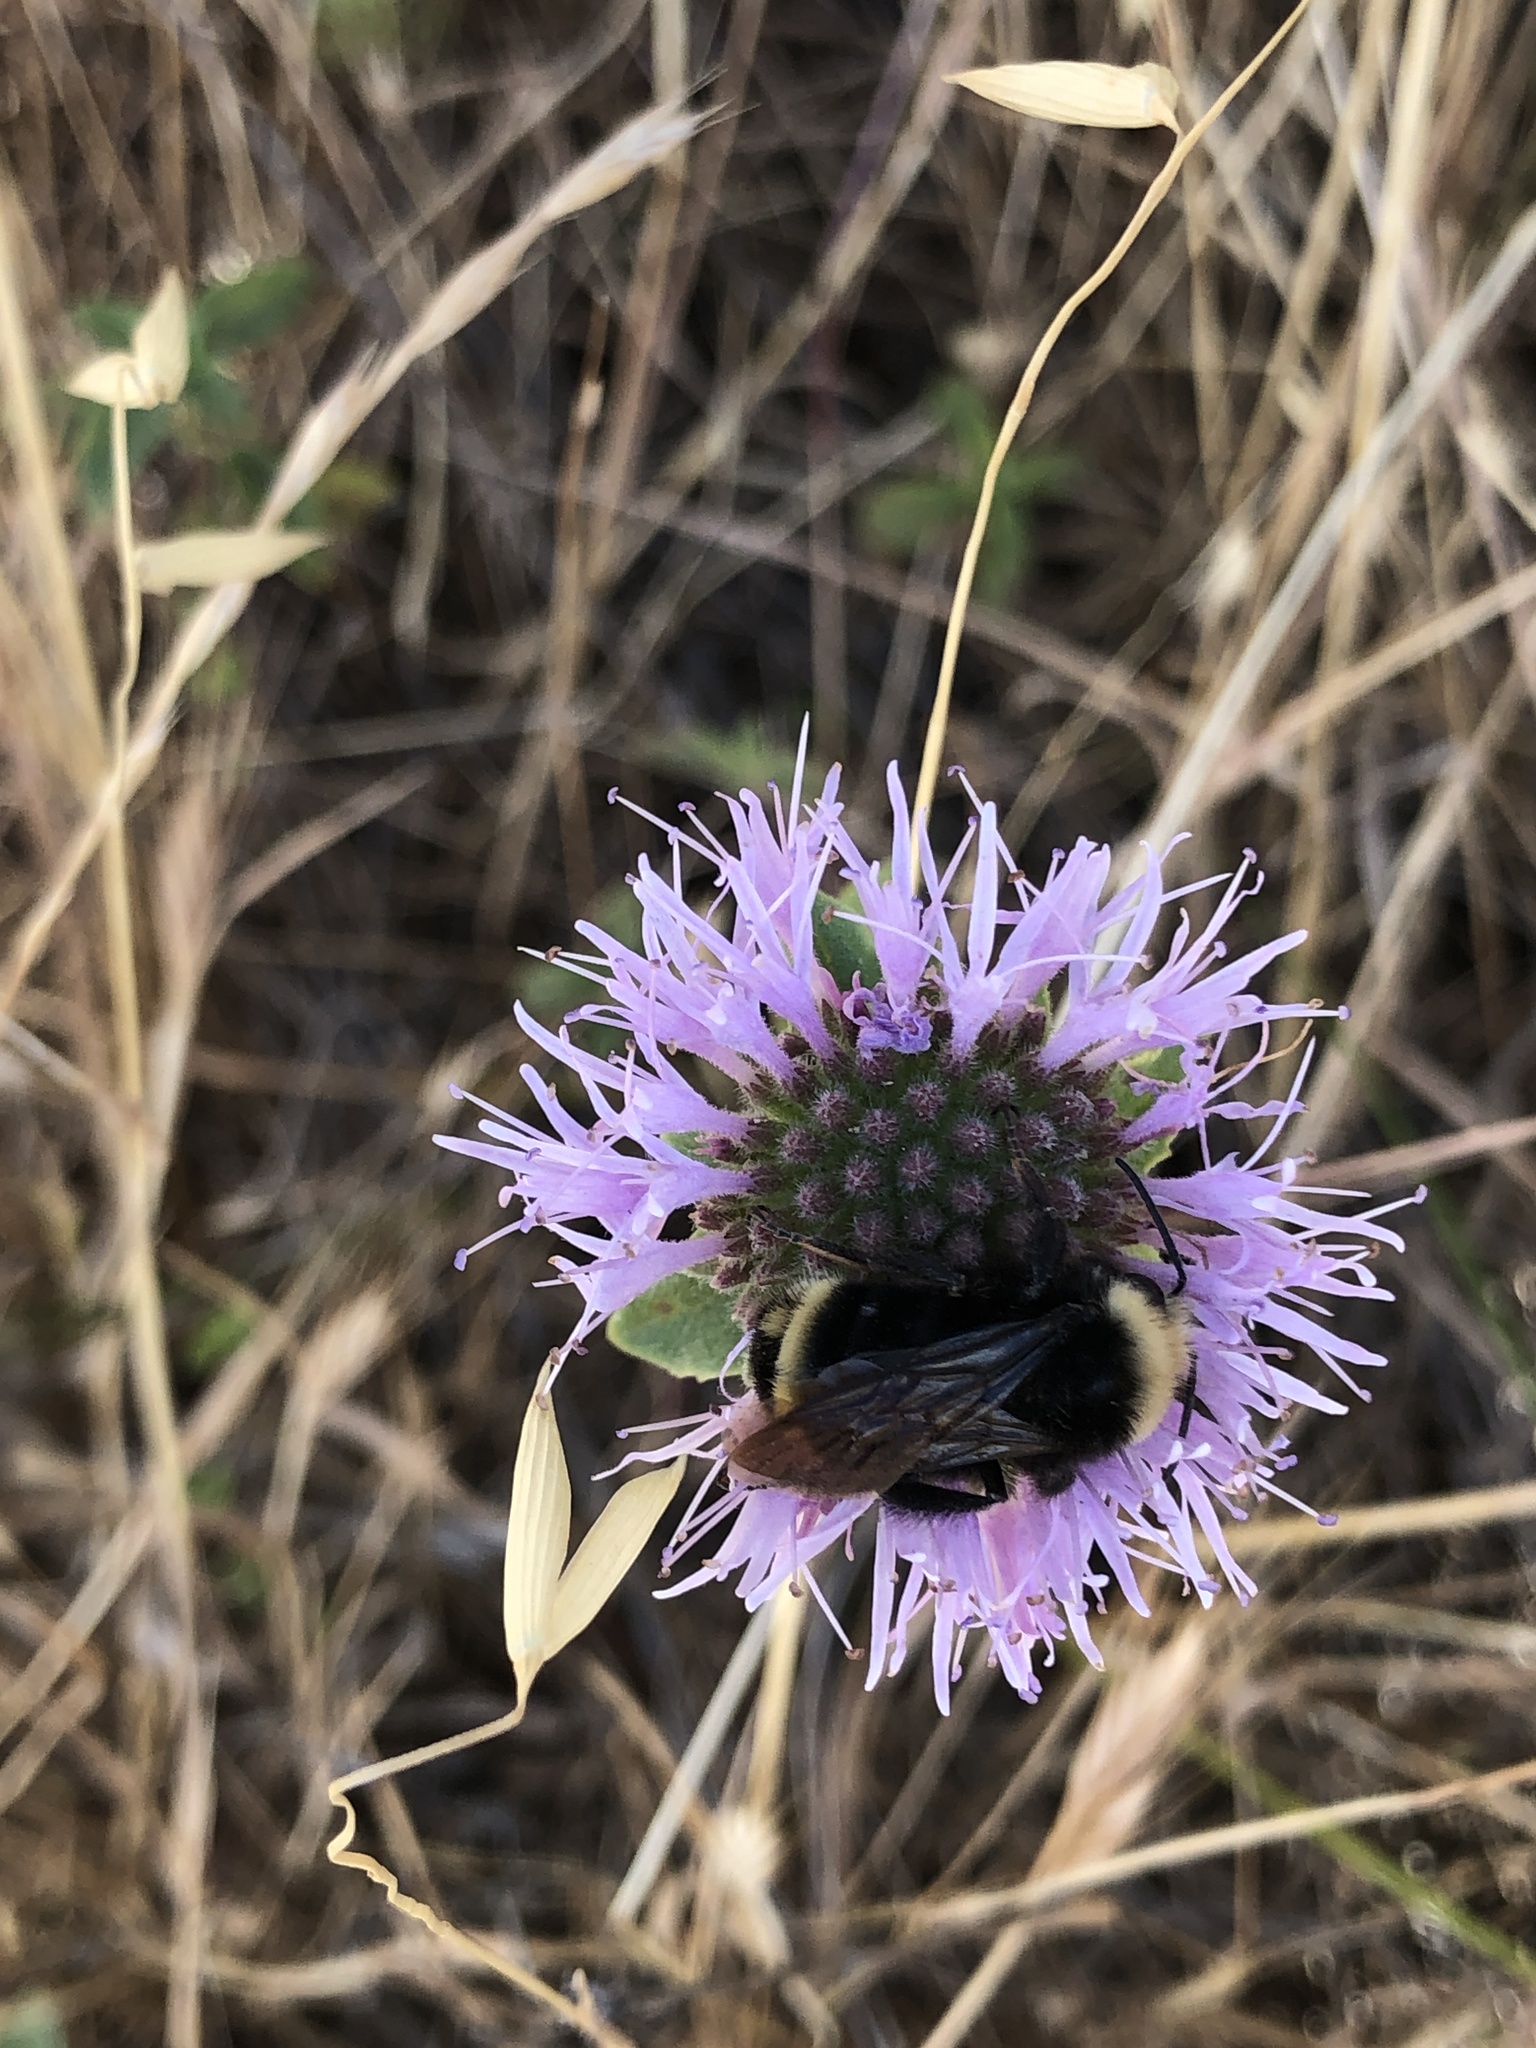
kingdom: Plantae
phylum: Tracheophyta
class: Magnoliopsida
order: Lamiales
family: Lamiaceae
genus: Monardella
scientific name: Monardella odoratissima
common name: Pacific monardella
